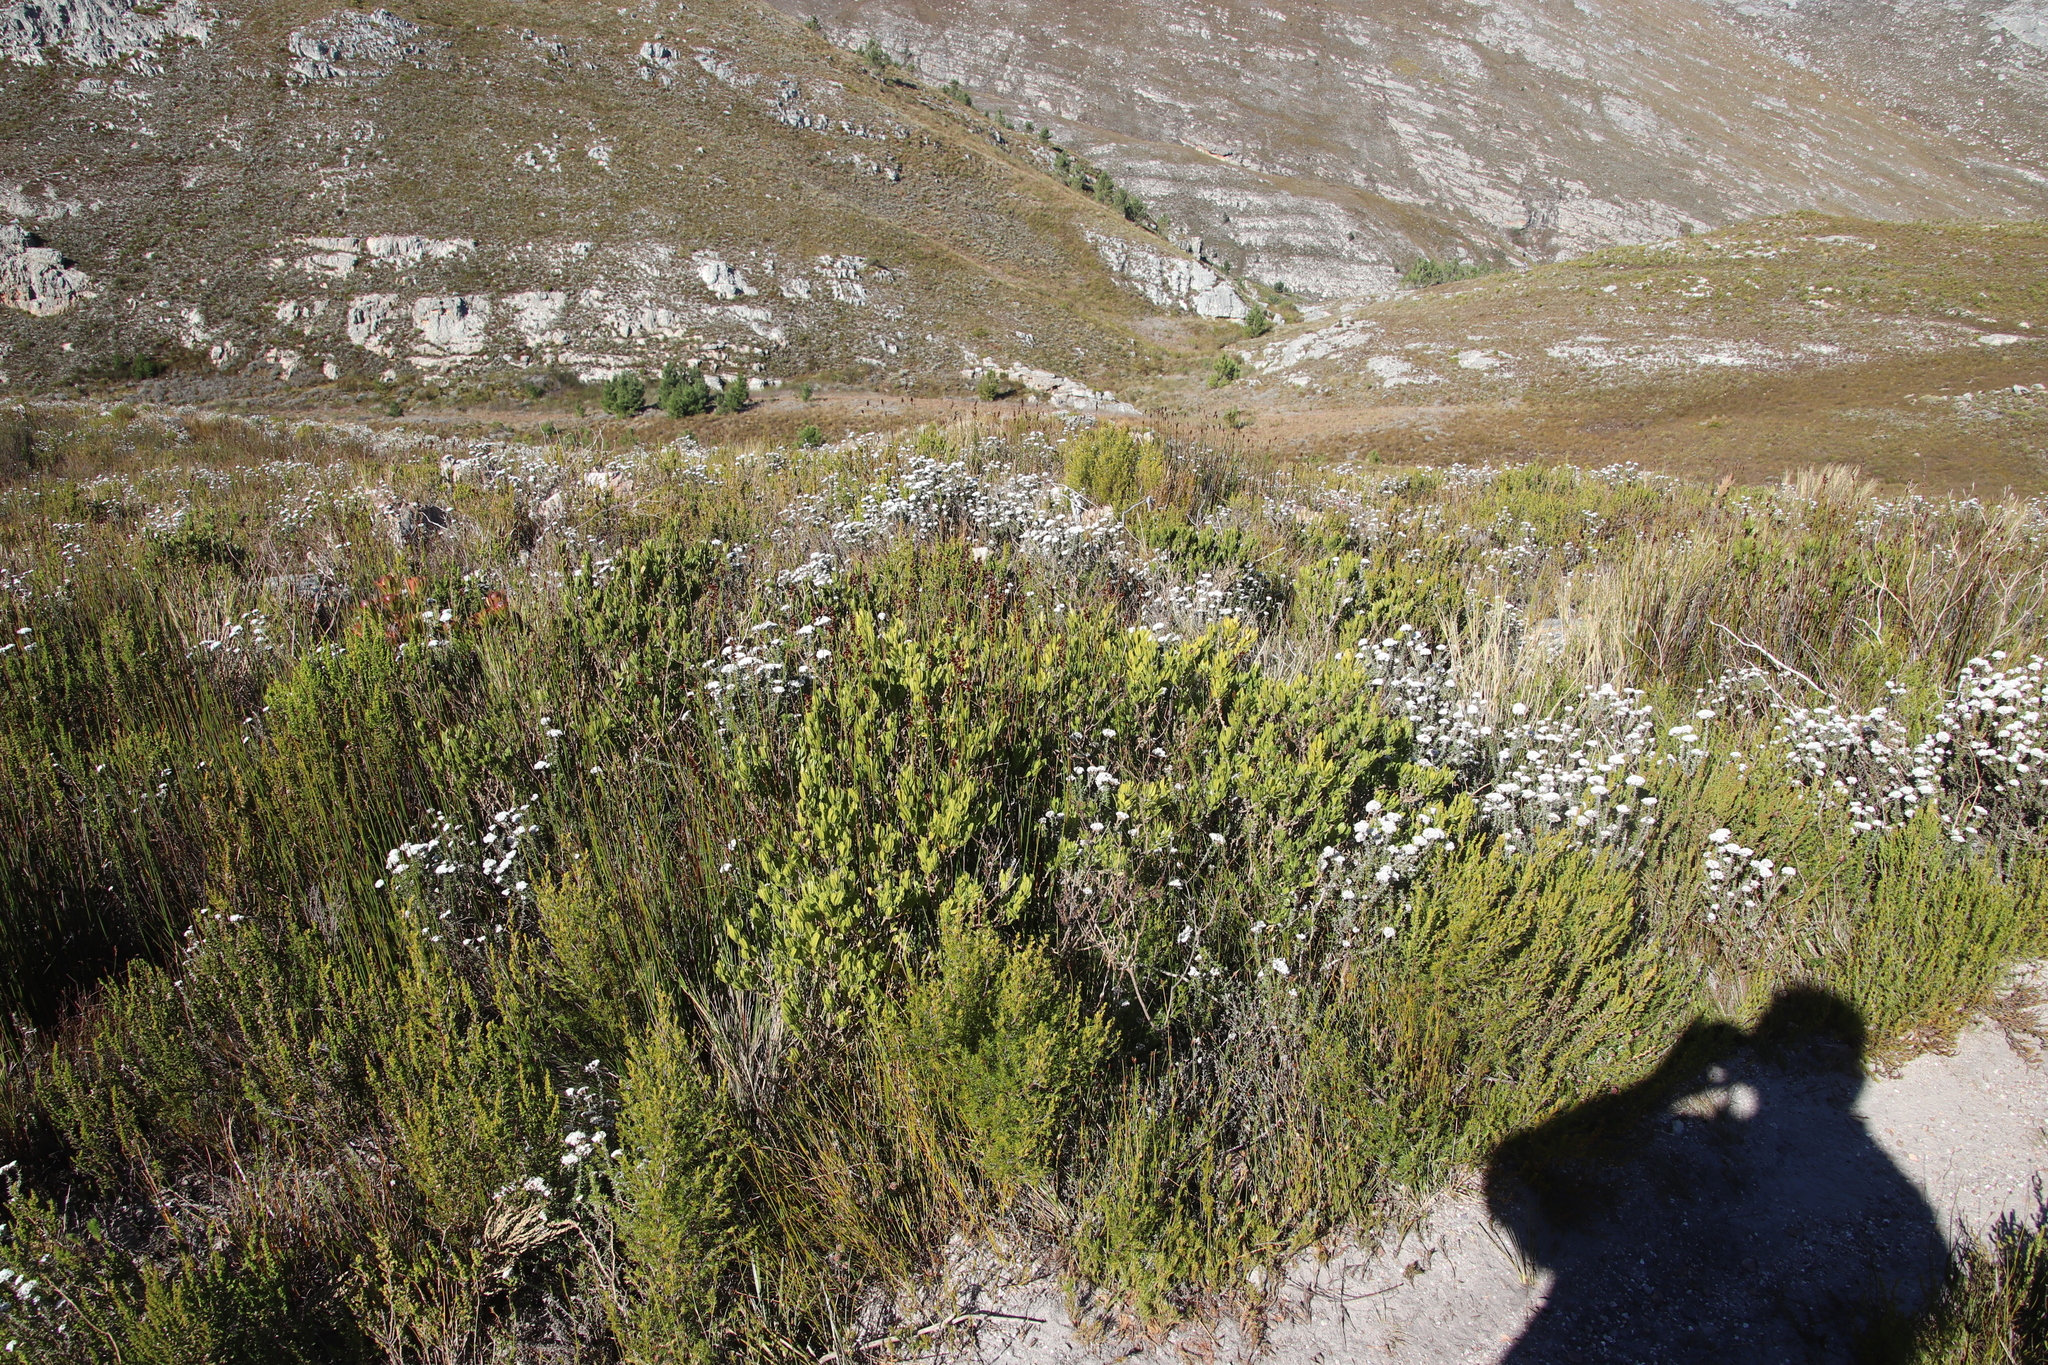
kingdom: Plantae
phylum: Tracheophyta
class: Magnoliopsida
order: Fabales
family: Fabaceae
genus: Psoralea
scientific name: Psoralea mundiana
